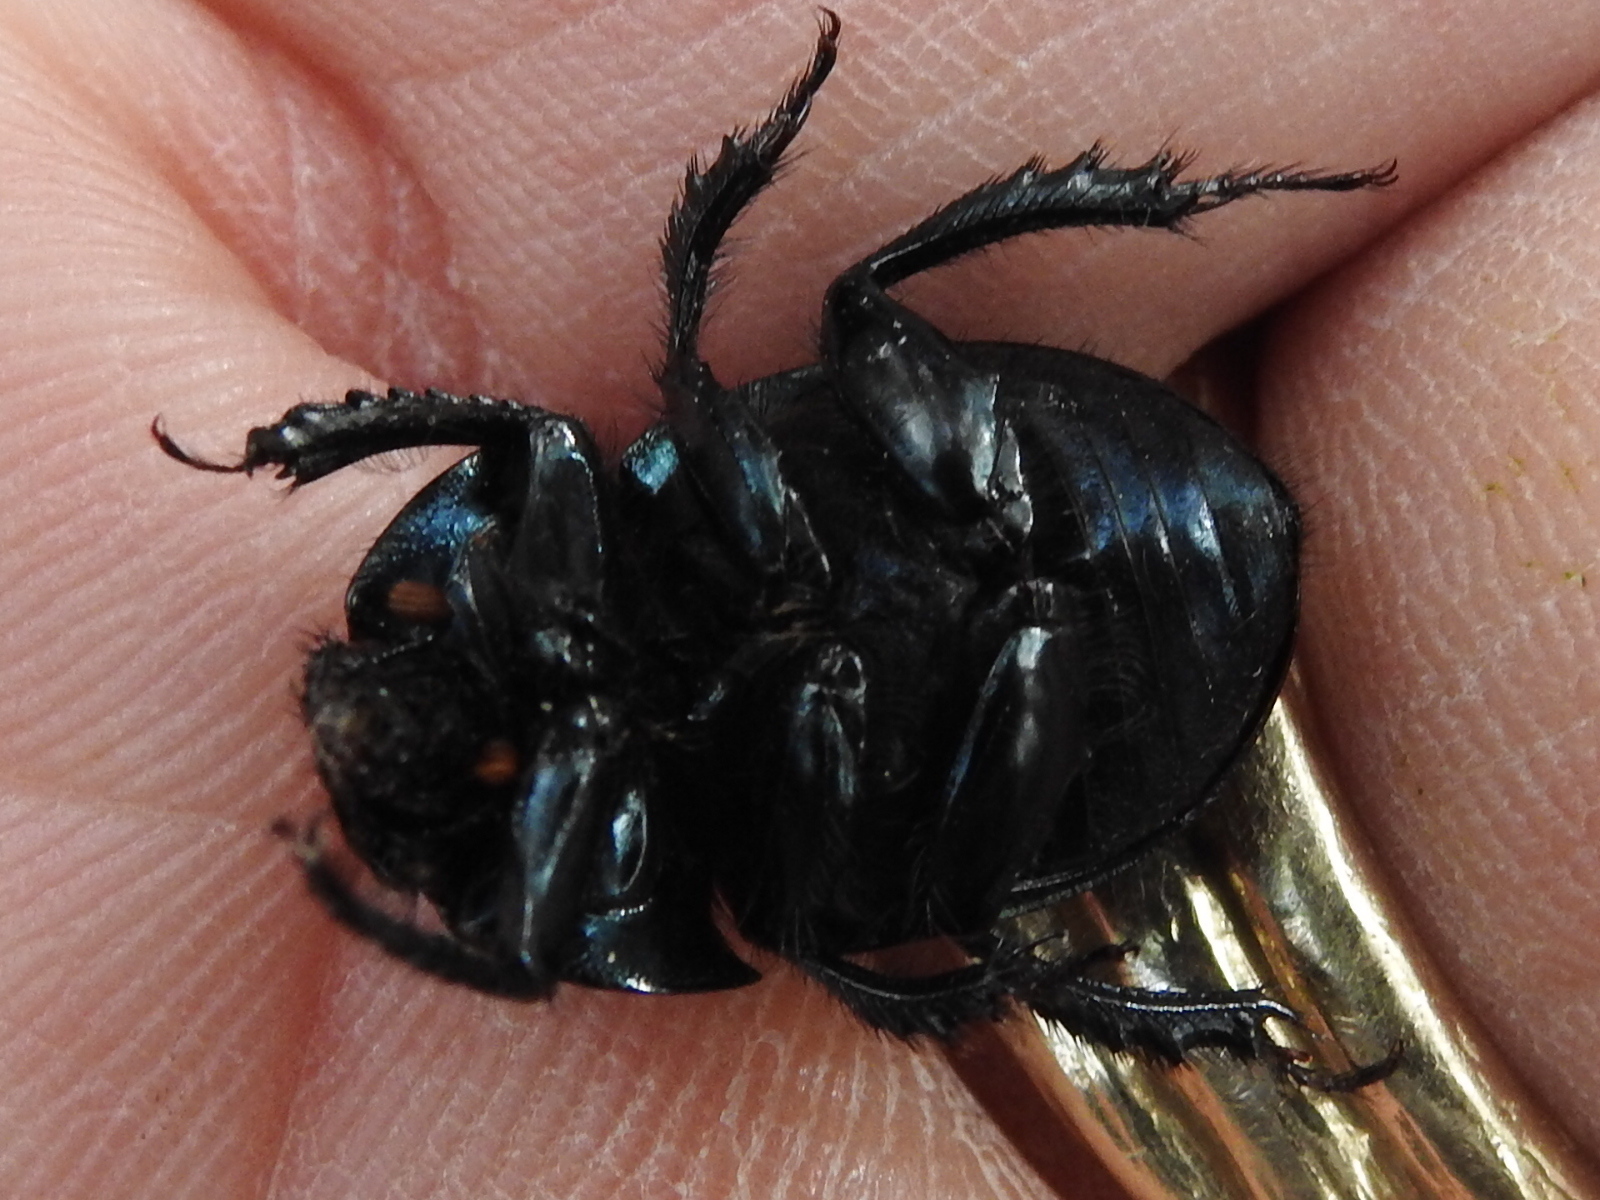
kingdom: Animalia
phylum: Arthropoda
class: Insecta
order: Coleoptera
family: Geotrupidae
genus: Cnemotrupes
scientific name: Cnemotrupes semiopacus
